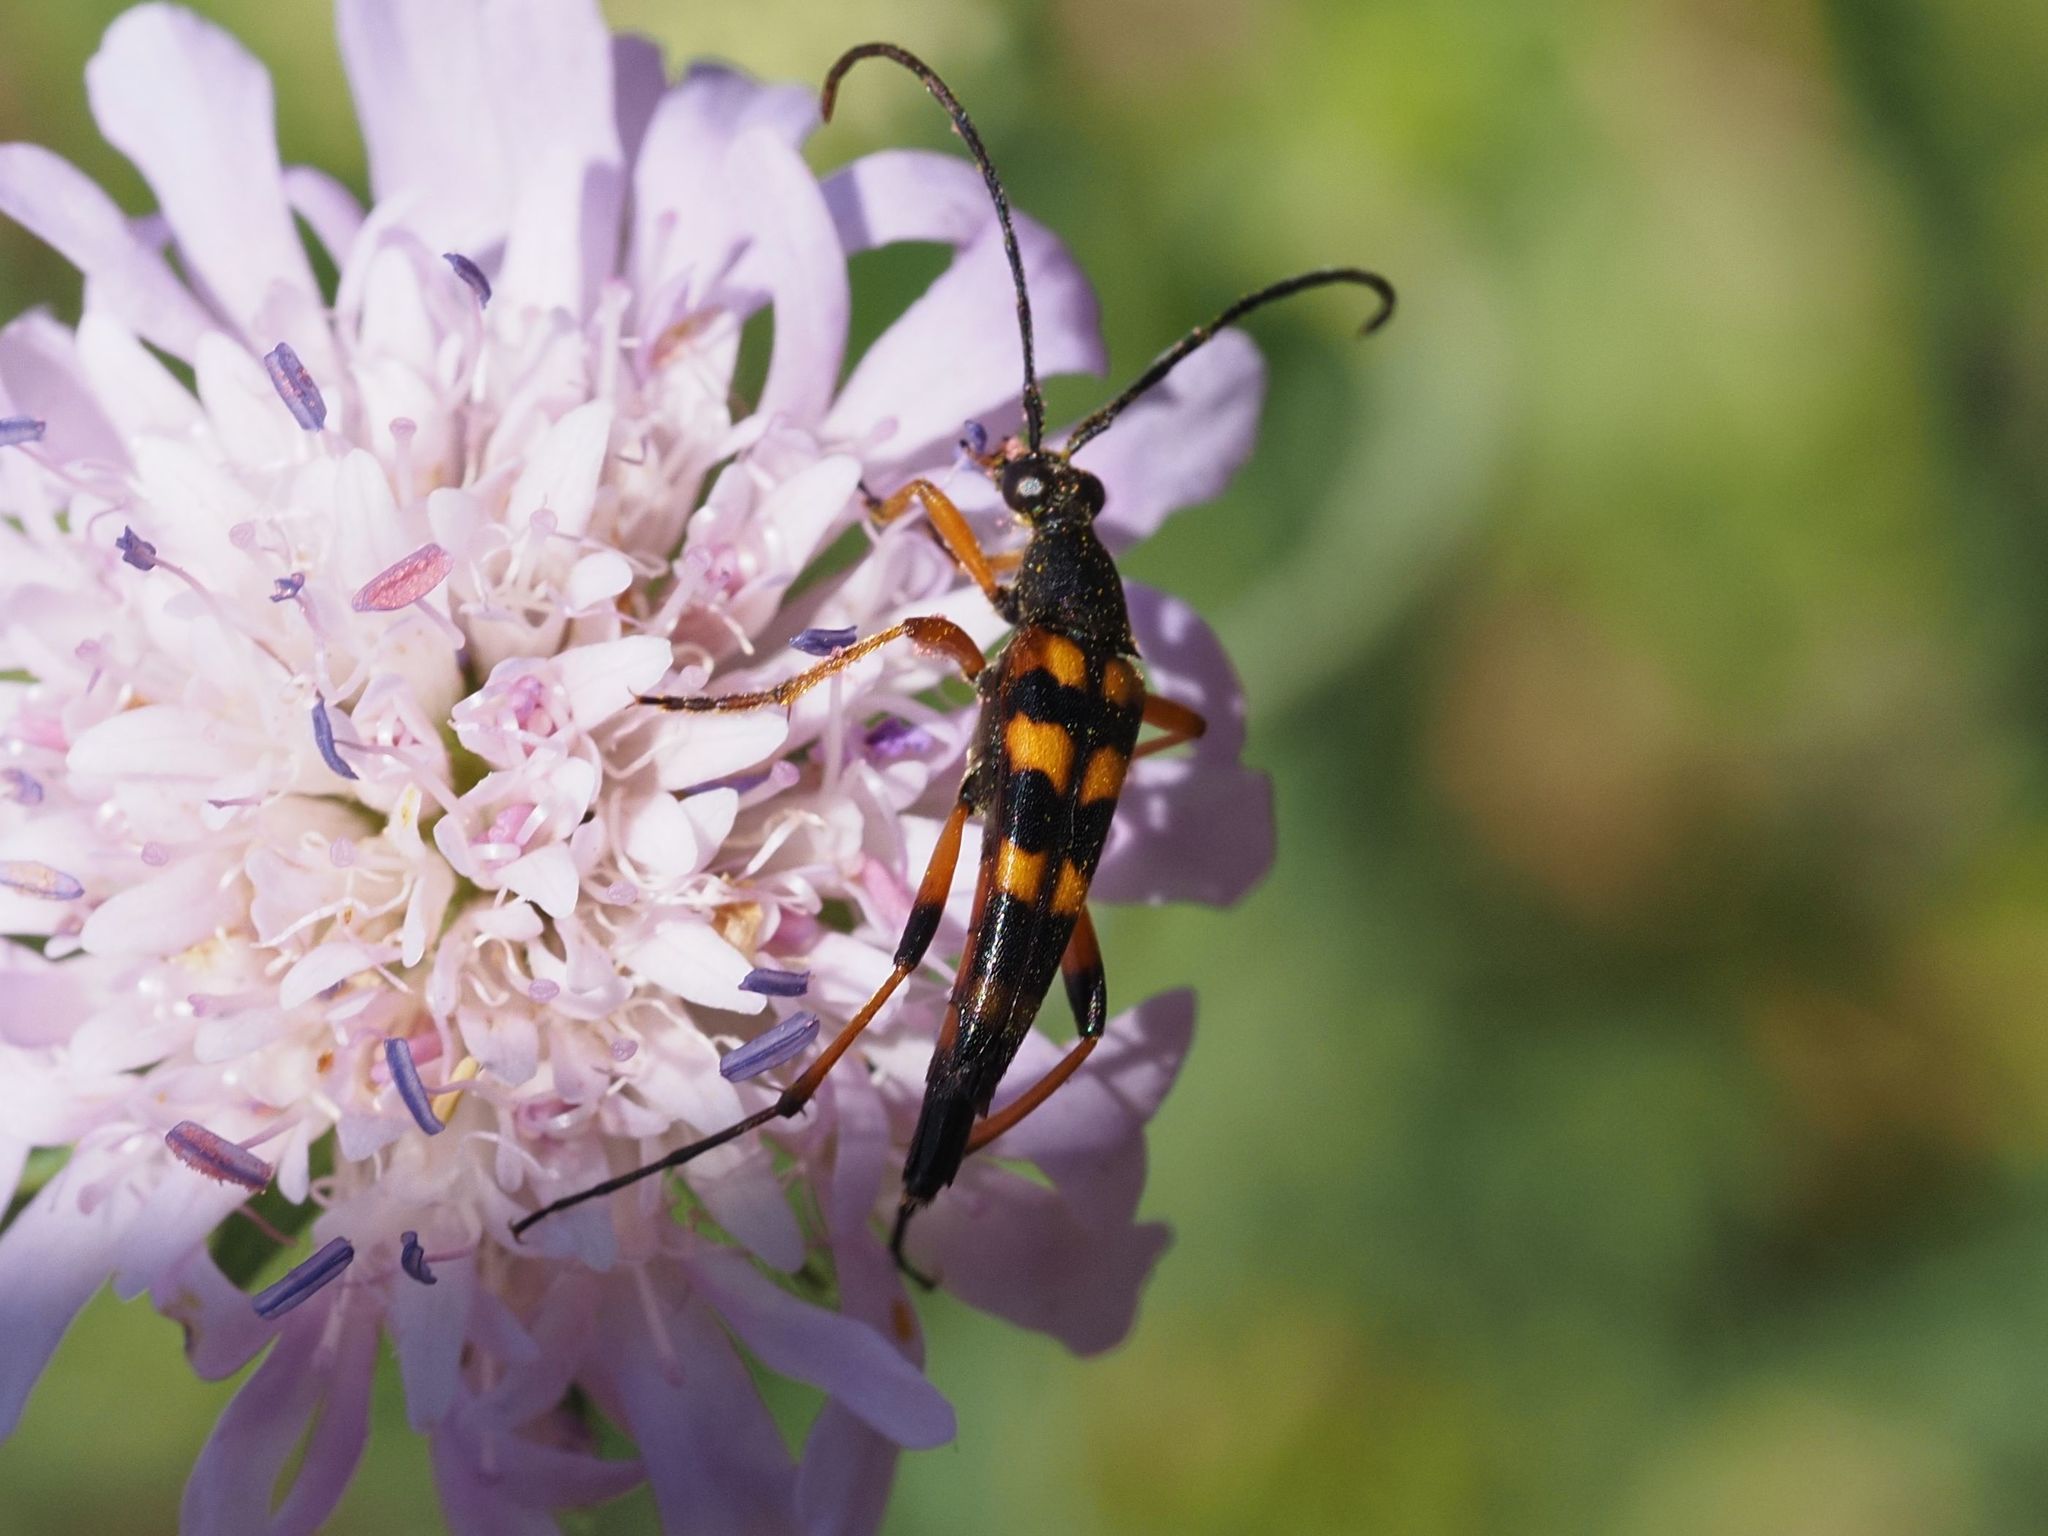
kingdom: Animalia
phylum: Arthropoda
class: Insecta
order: Coleoptera
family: Cerambycidae
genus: Strangalia
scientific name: Strangalia attenuata
